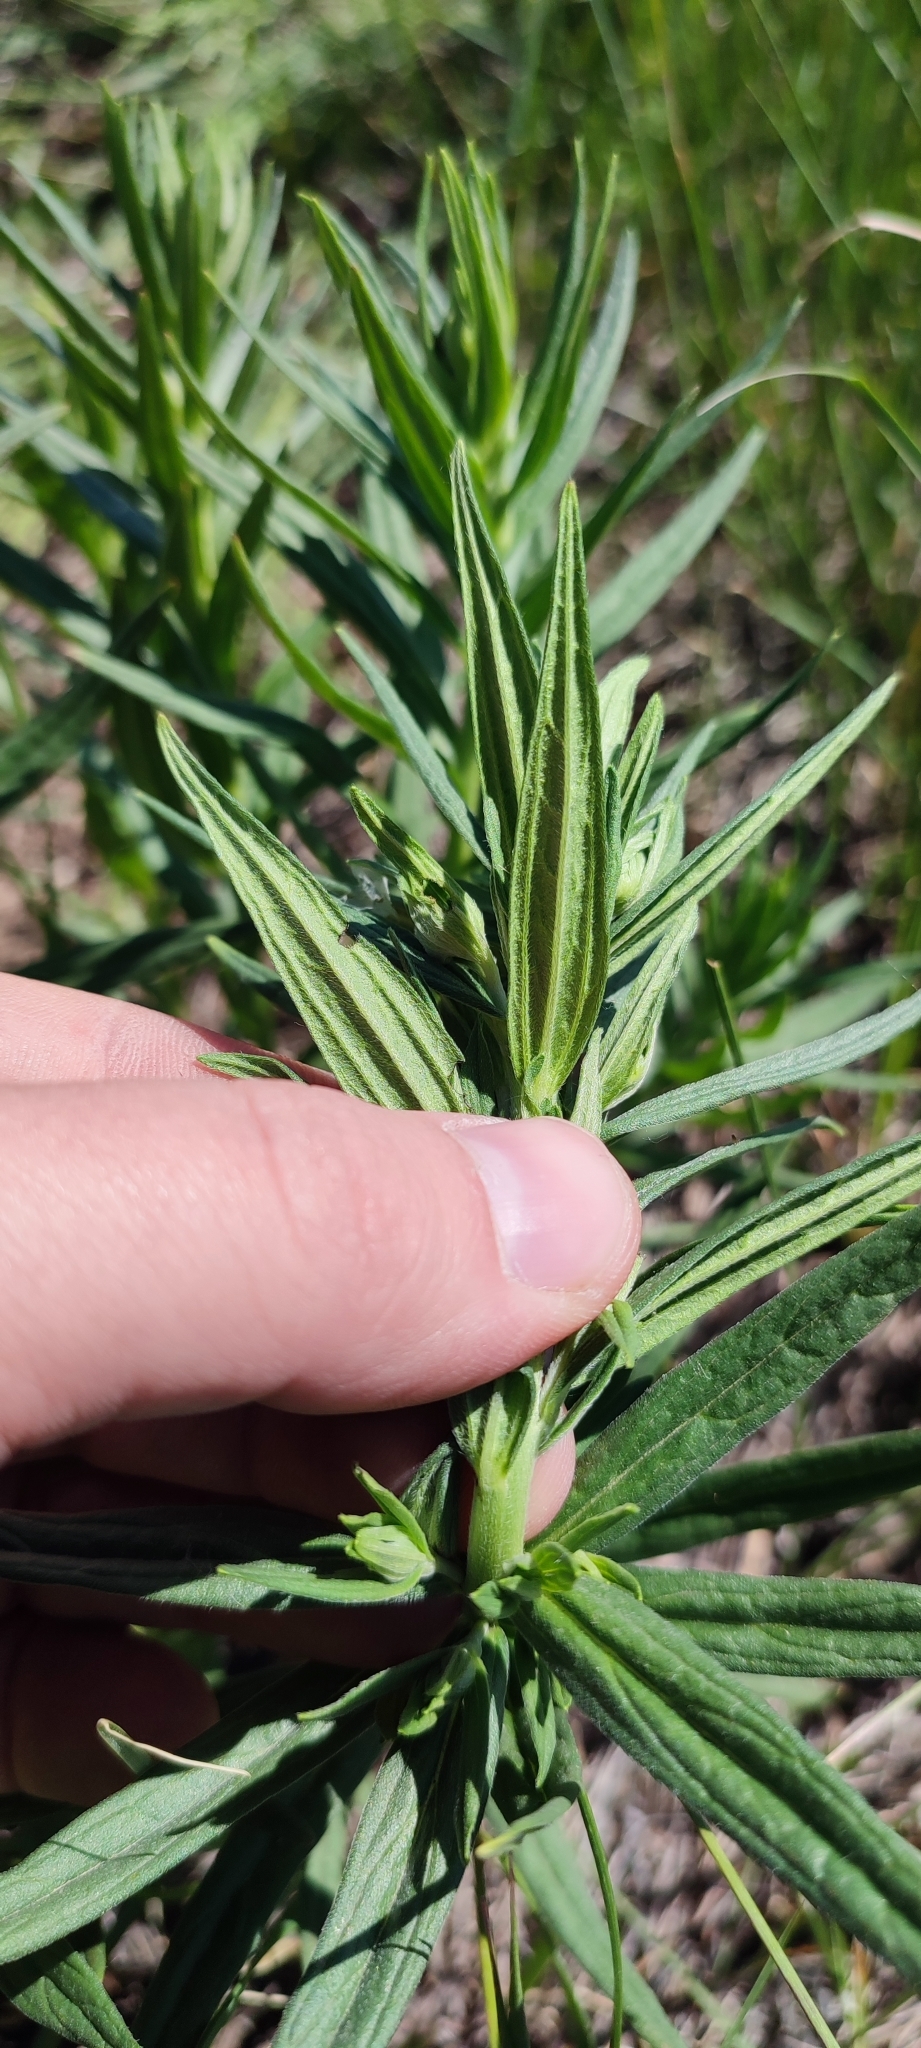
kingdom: Plantae
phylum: Tracheophyta
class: Magnoliopsida
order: Boraginales
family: Boraginaceae
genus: Lithospermum
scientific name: Lithospermum officinale
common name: Common gromwell
